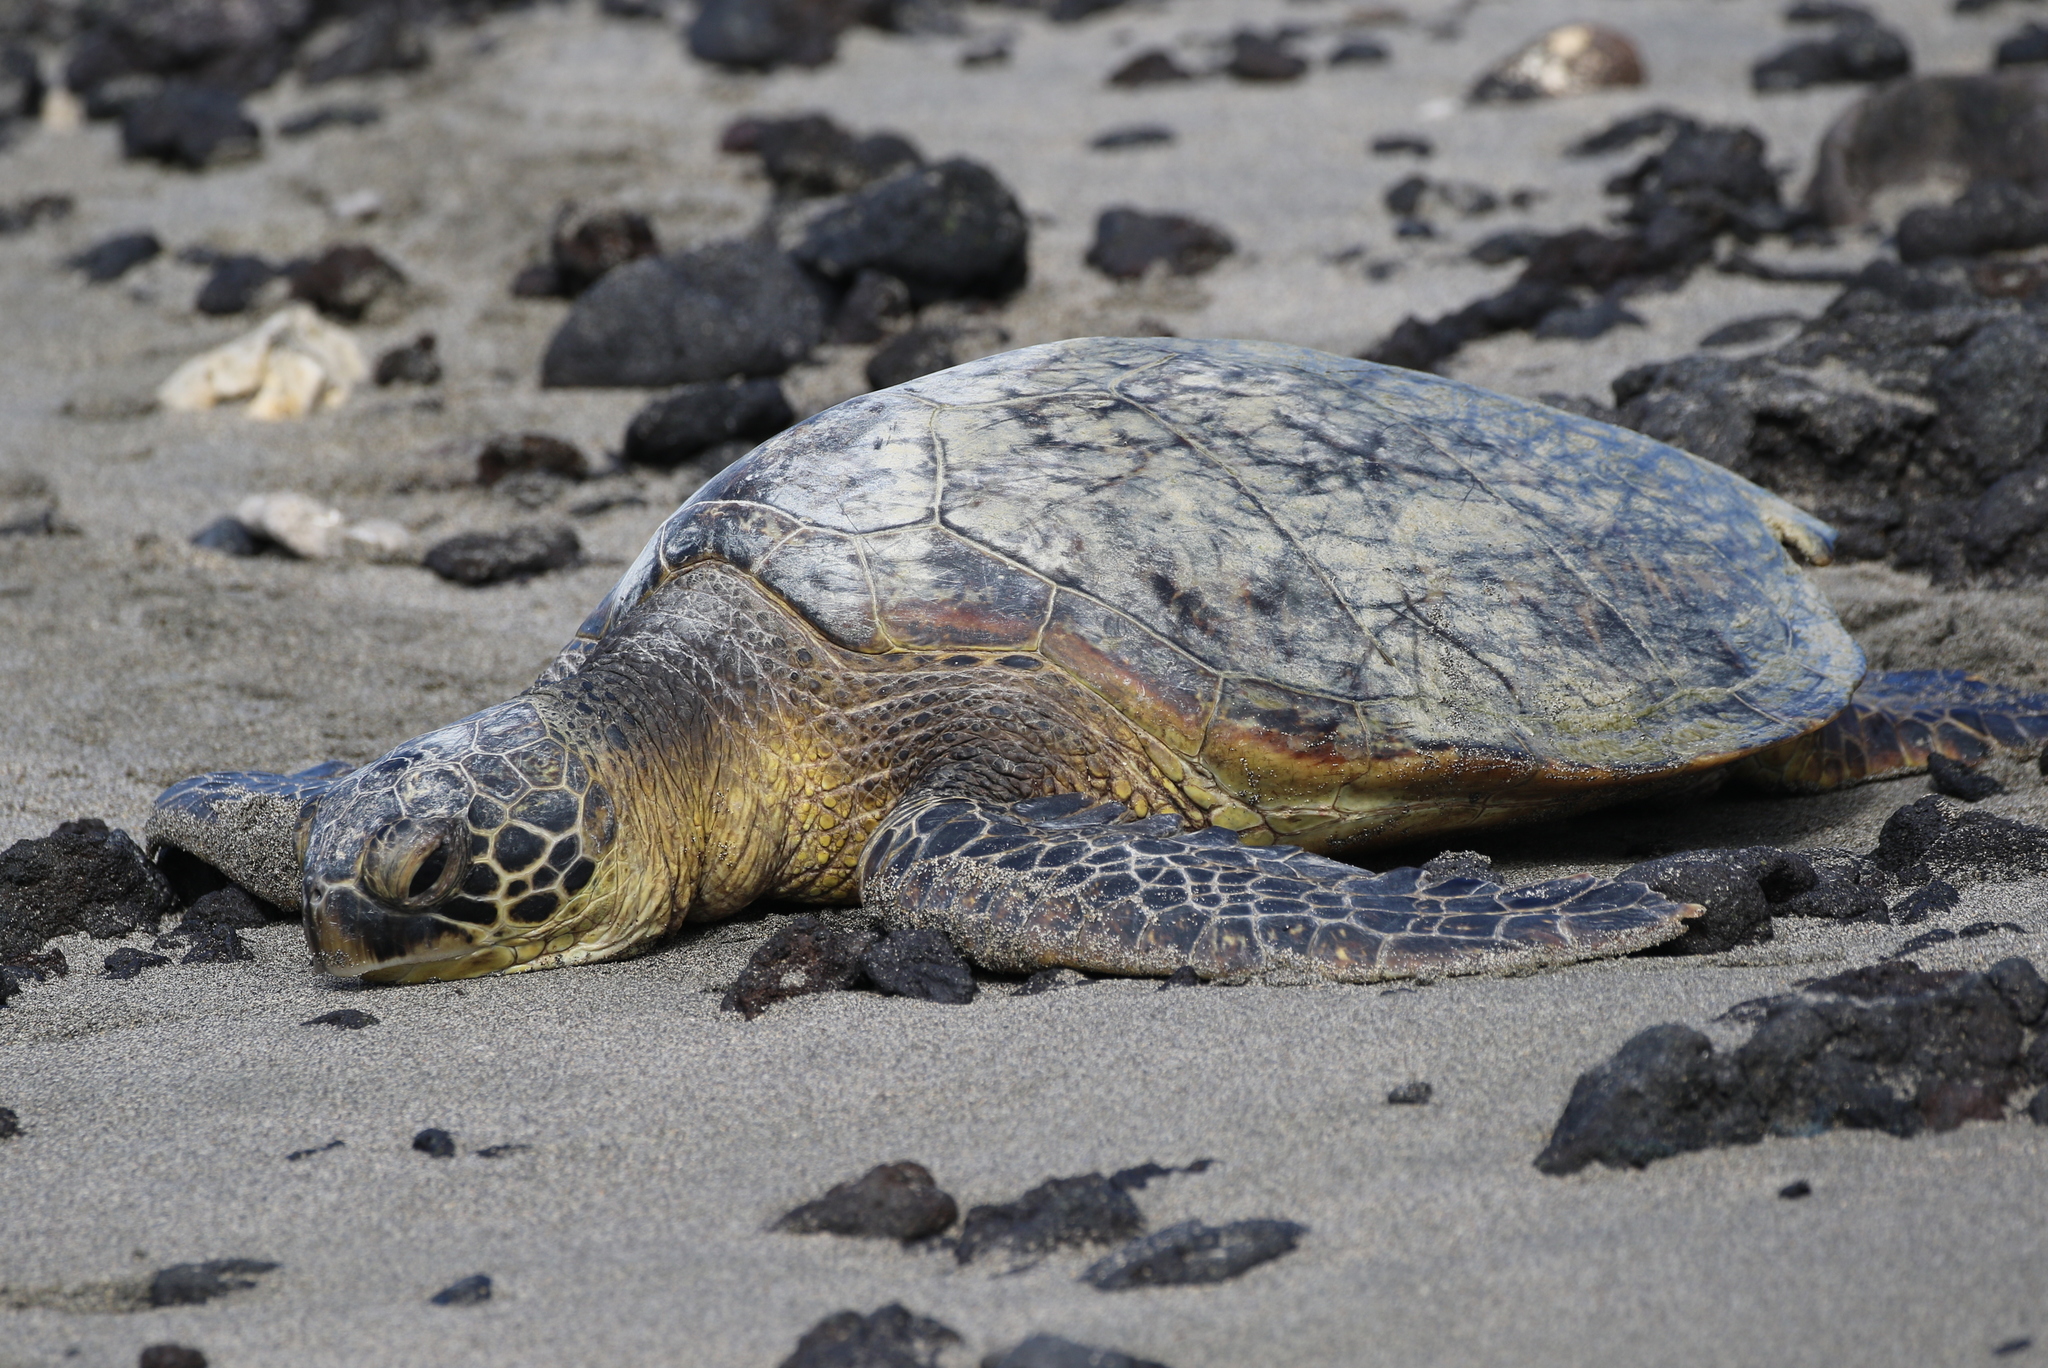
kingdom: Animalia
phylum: Chordata
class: Testudines
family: Cheloniidae
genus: Chelonia
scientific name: Chelonia mydas
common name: Green turtle
